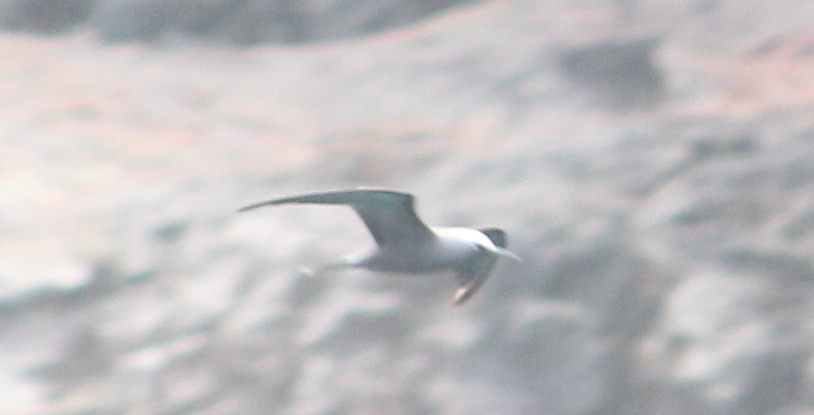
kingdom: Animalia
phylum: Chordata
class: Aves
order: Charadriiformes
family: Laridae
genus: Anous
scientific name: Anous minutus
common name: Black noddy
